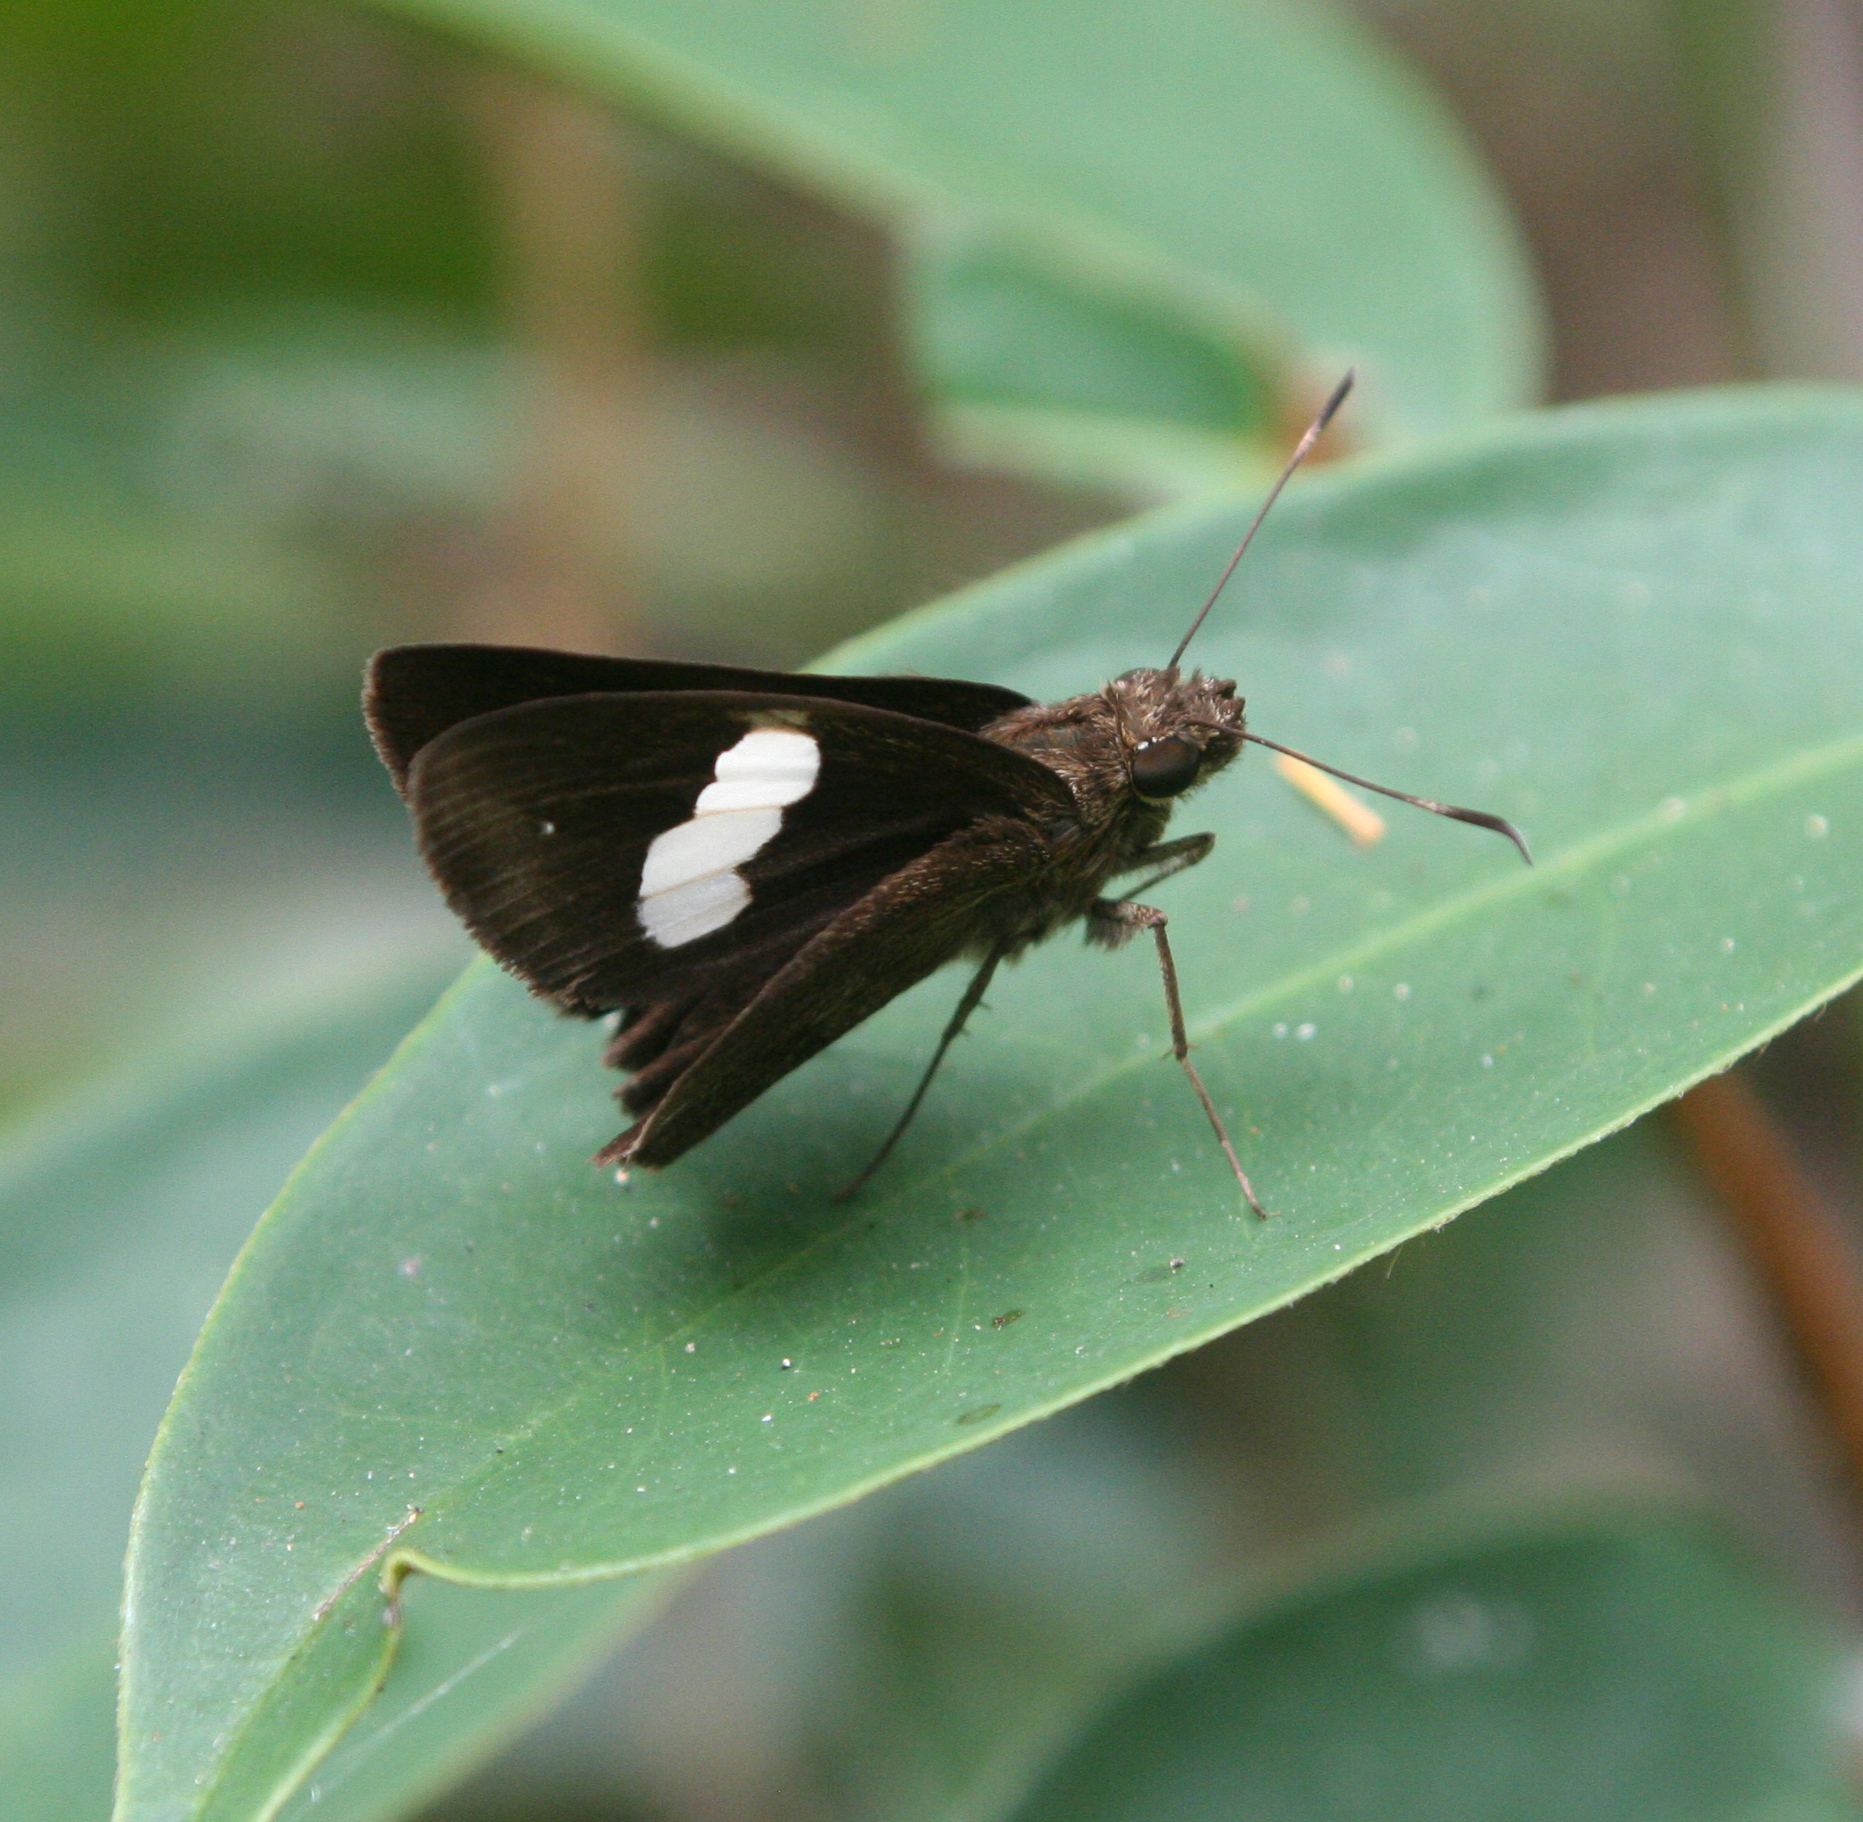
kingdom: Animalia
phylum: Arthropoda
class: Insecta
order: Lepidoptera
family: Hesperiidae
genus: Notocrypta
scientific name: Notocrypta paralysos
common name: Common banded demon
